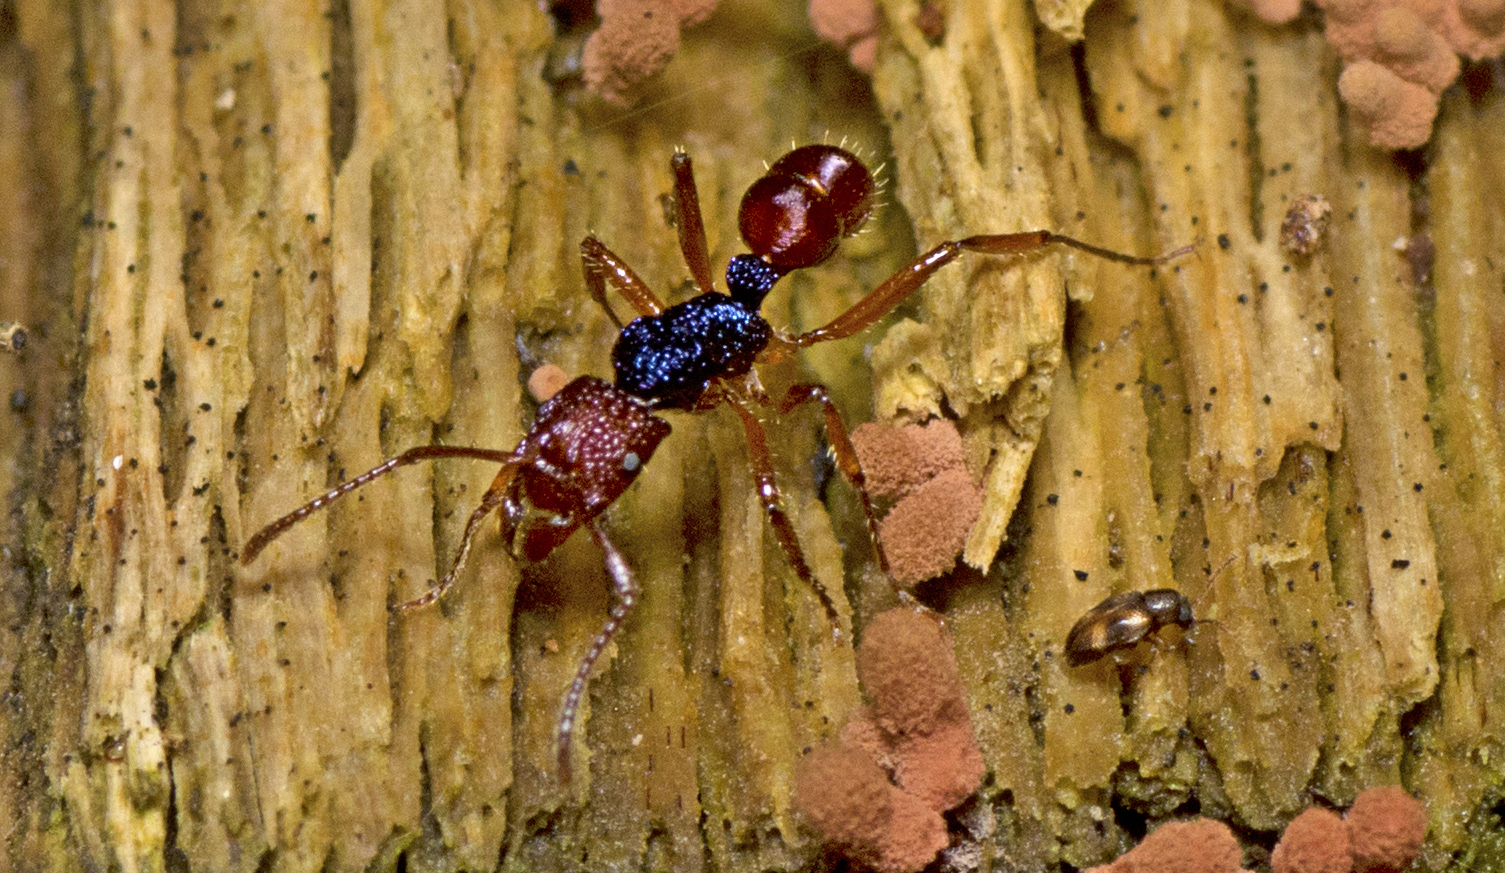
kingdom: Animalia
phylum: Arthropoda
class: Insecta
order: Hymenoptera
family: Formicidae
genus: Rhytidoponera
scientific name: Rhytidoponera croesus
